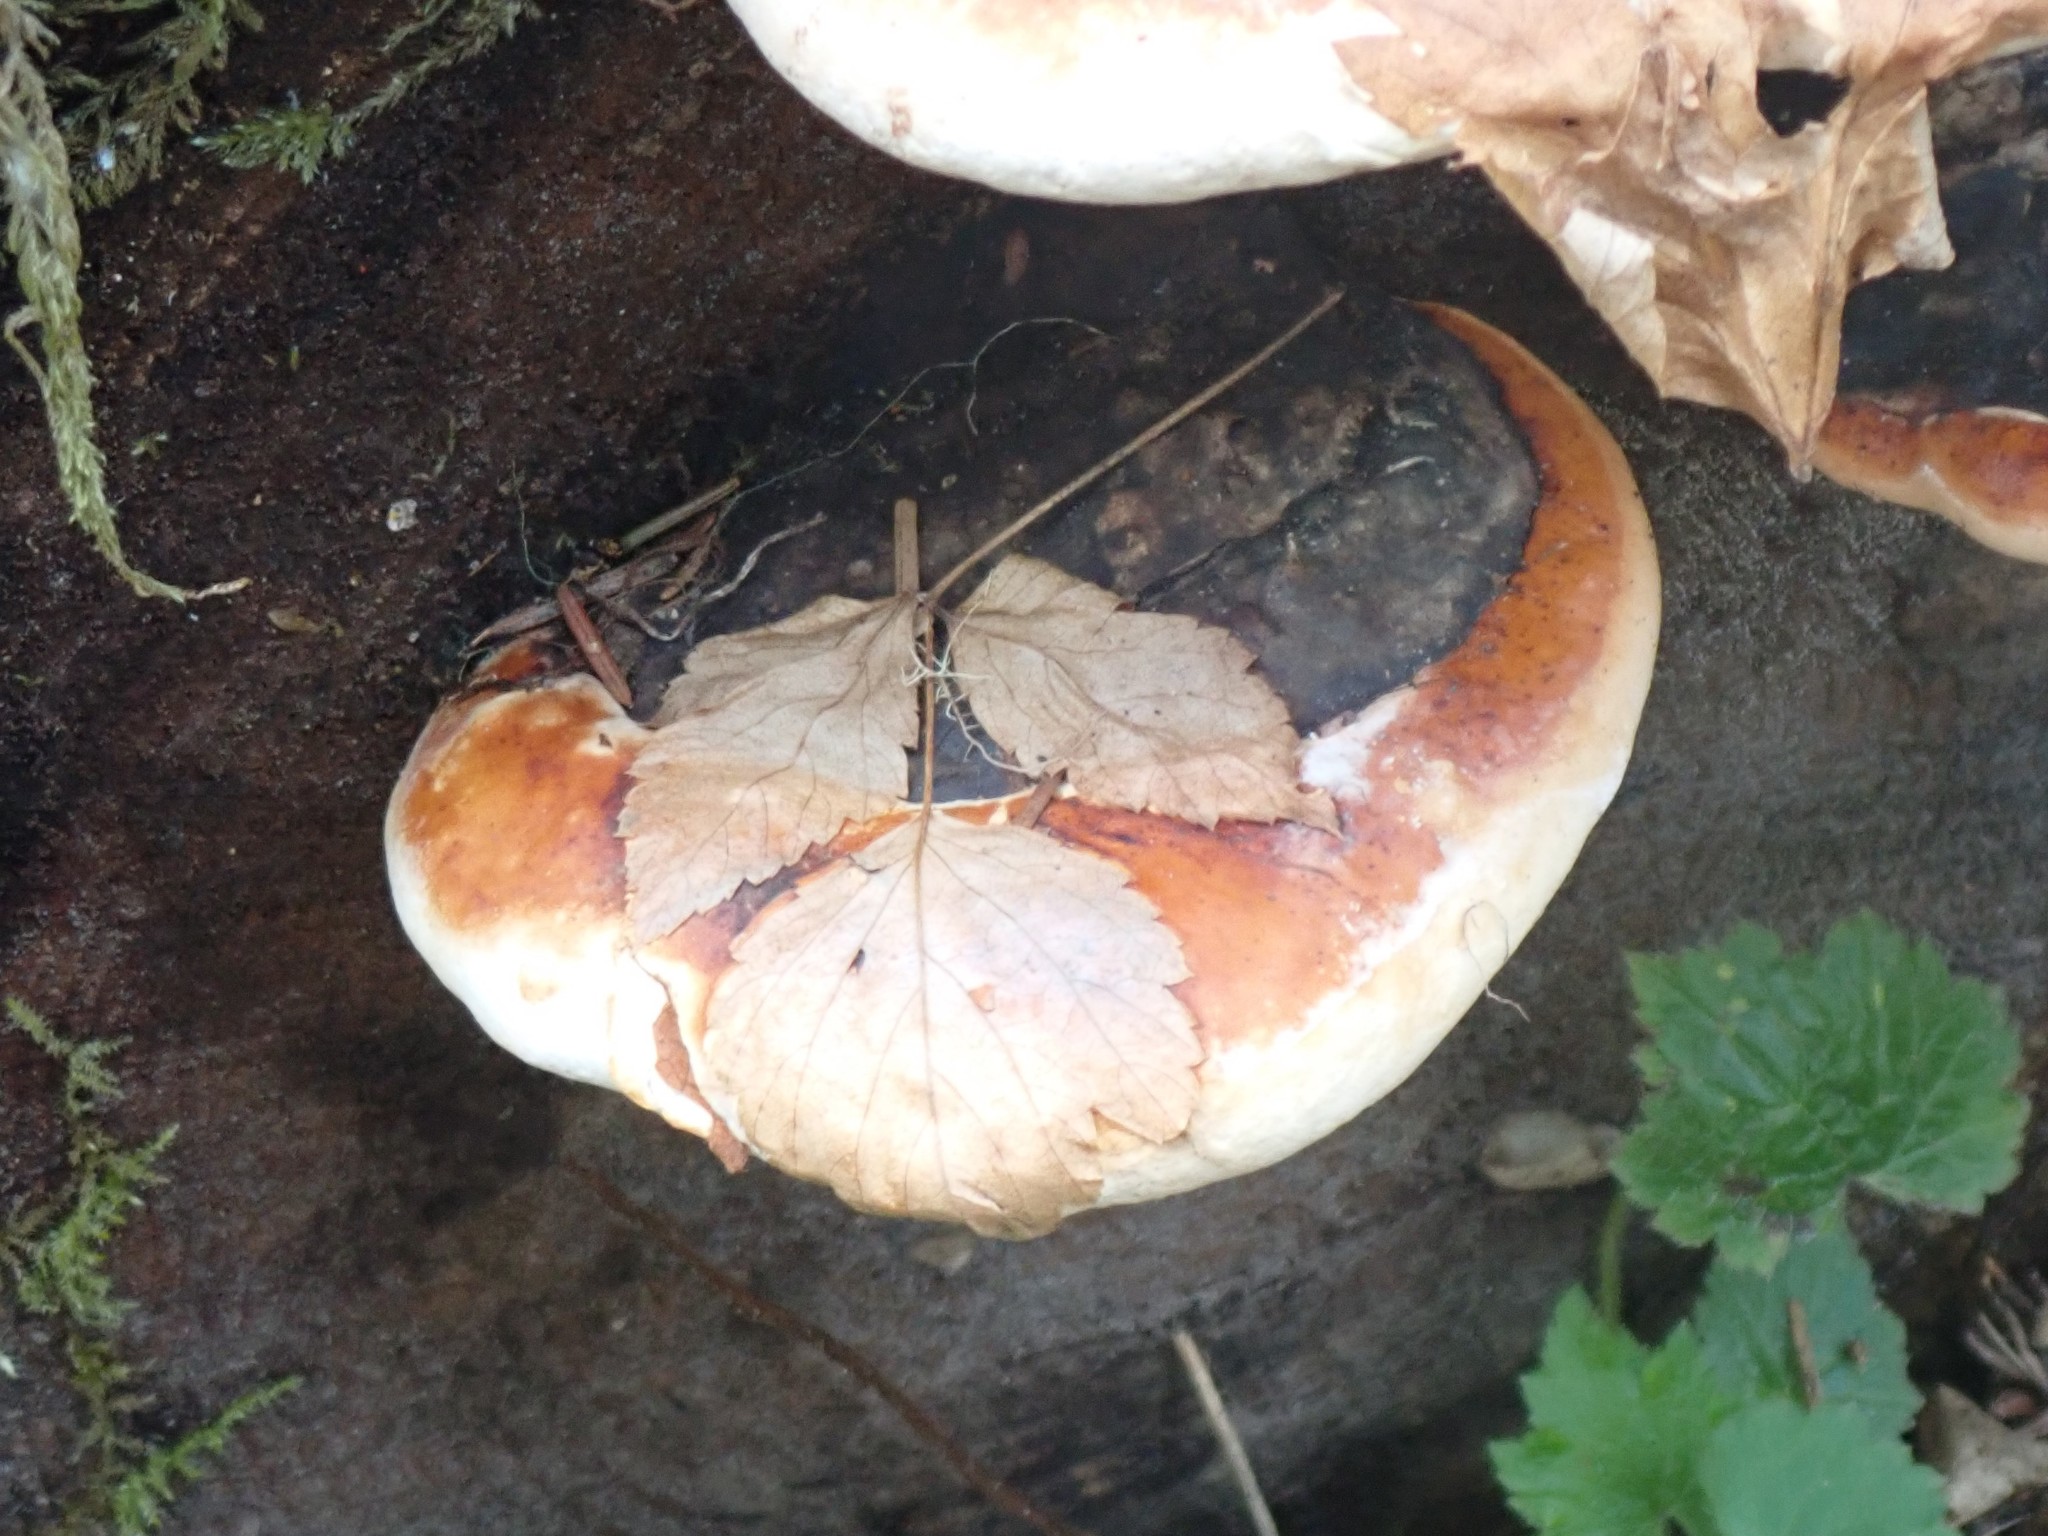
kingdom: Fungi
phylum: Basidiomycota
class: Agaricomycetes
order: Polyporales
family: Fomitopsidaceae
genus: Fomitopsis
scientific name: Fomitopsis mounceae
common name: Northern red belt
